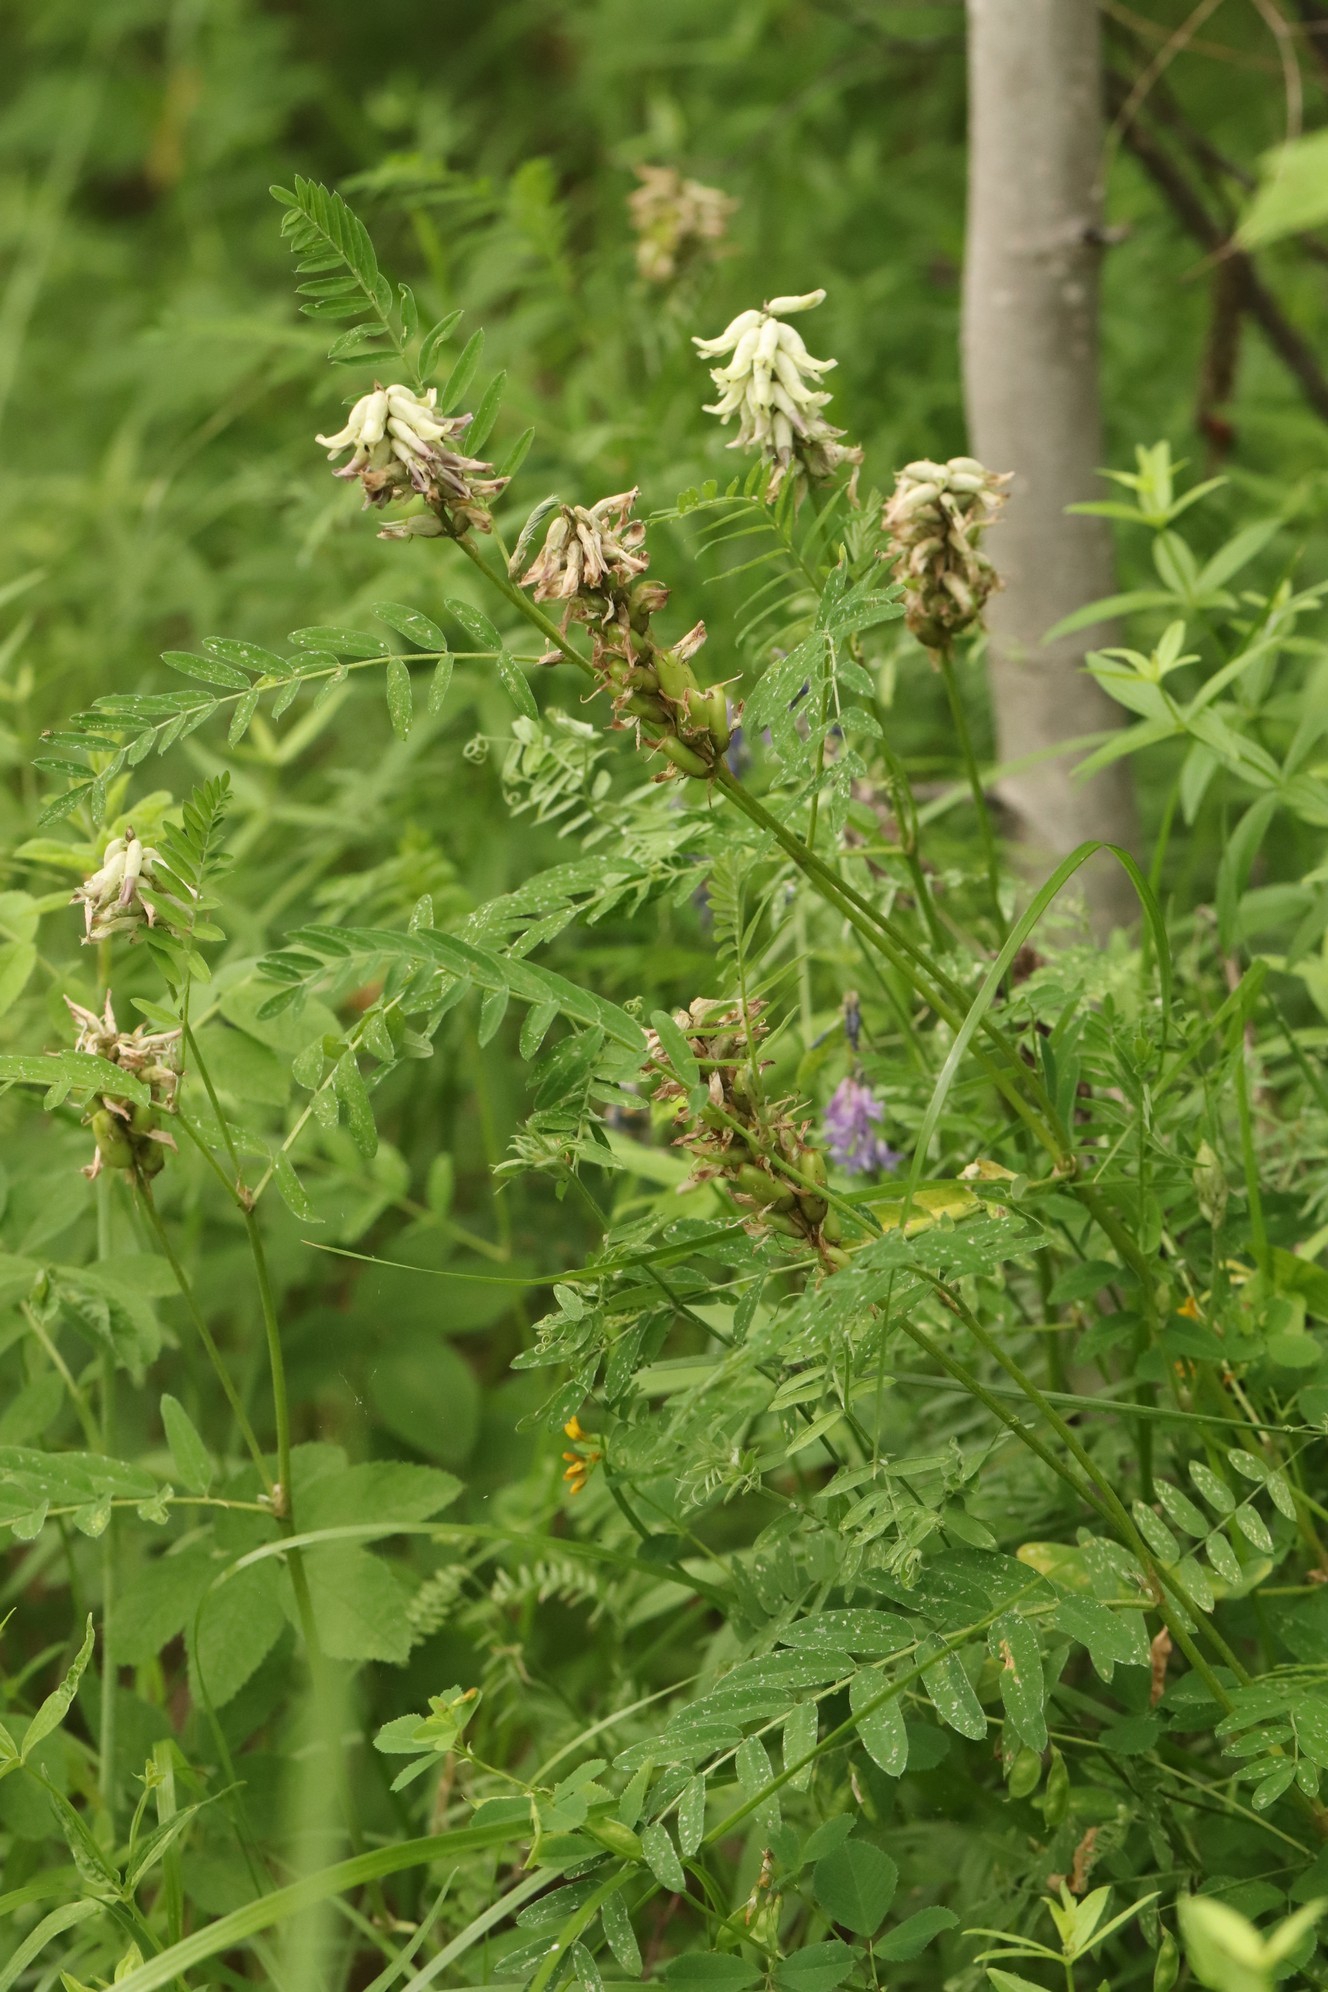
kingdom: Plantae
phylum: Tracheophyta
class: Magnoliopsida
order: Fabales
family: Fabaceae
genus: Astragalus
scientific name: Astragalus uliginosus
